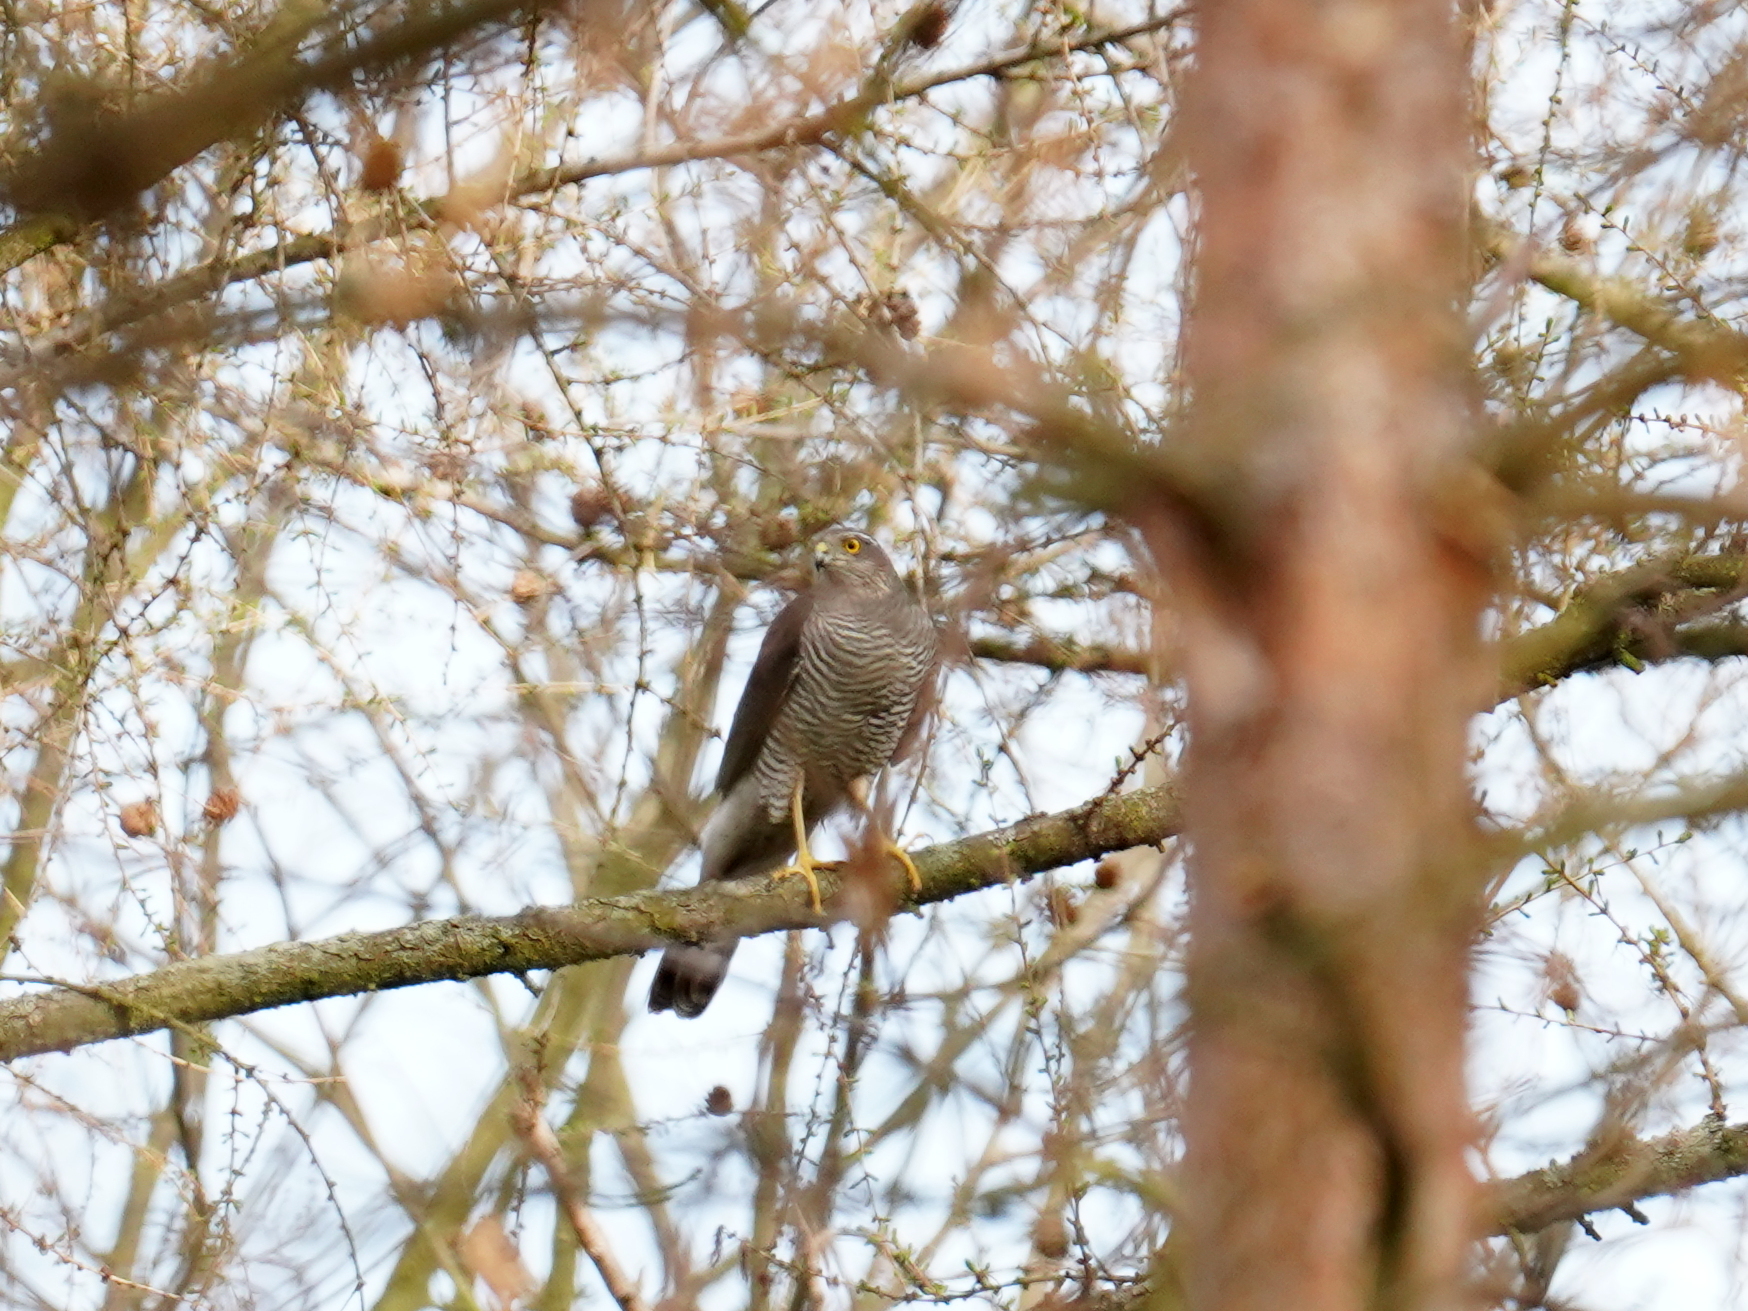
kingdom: Animalia
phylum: Chordata
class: Aves
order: Accipitriformes
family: Accipitridae
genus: Accipiter
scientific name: Accipiter nisus
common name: Eurasian sparrowhawk
